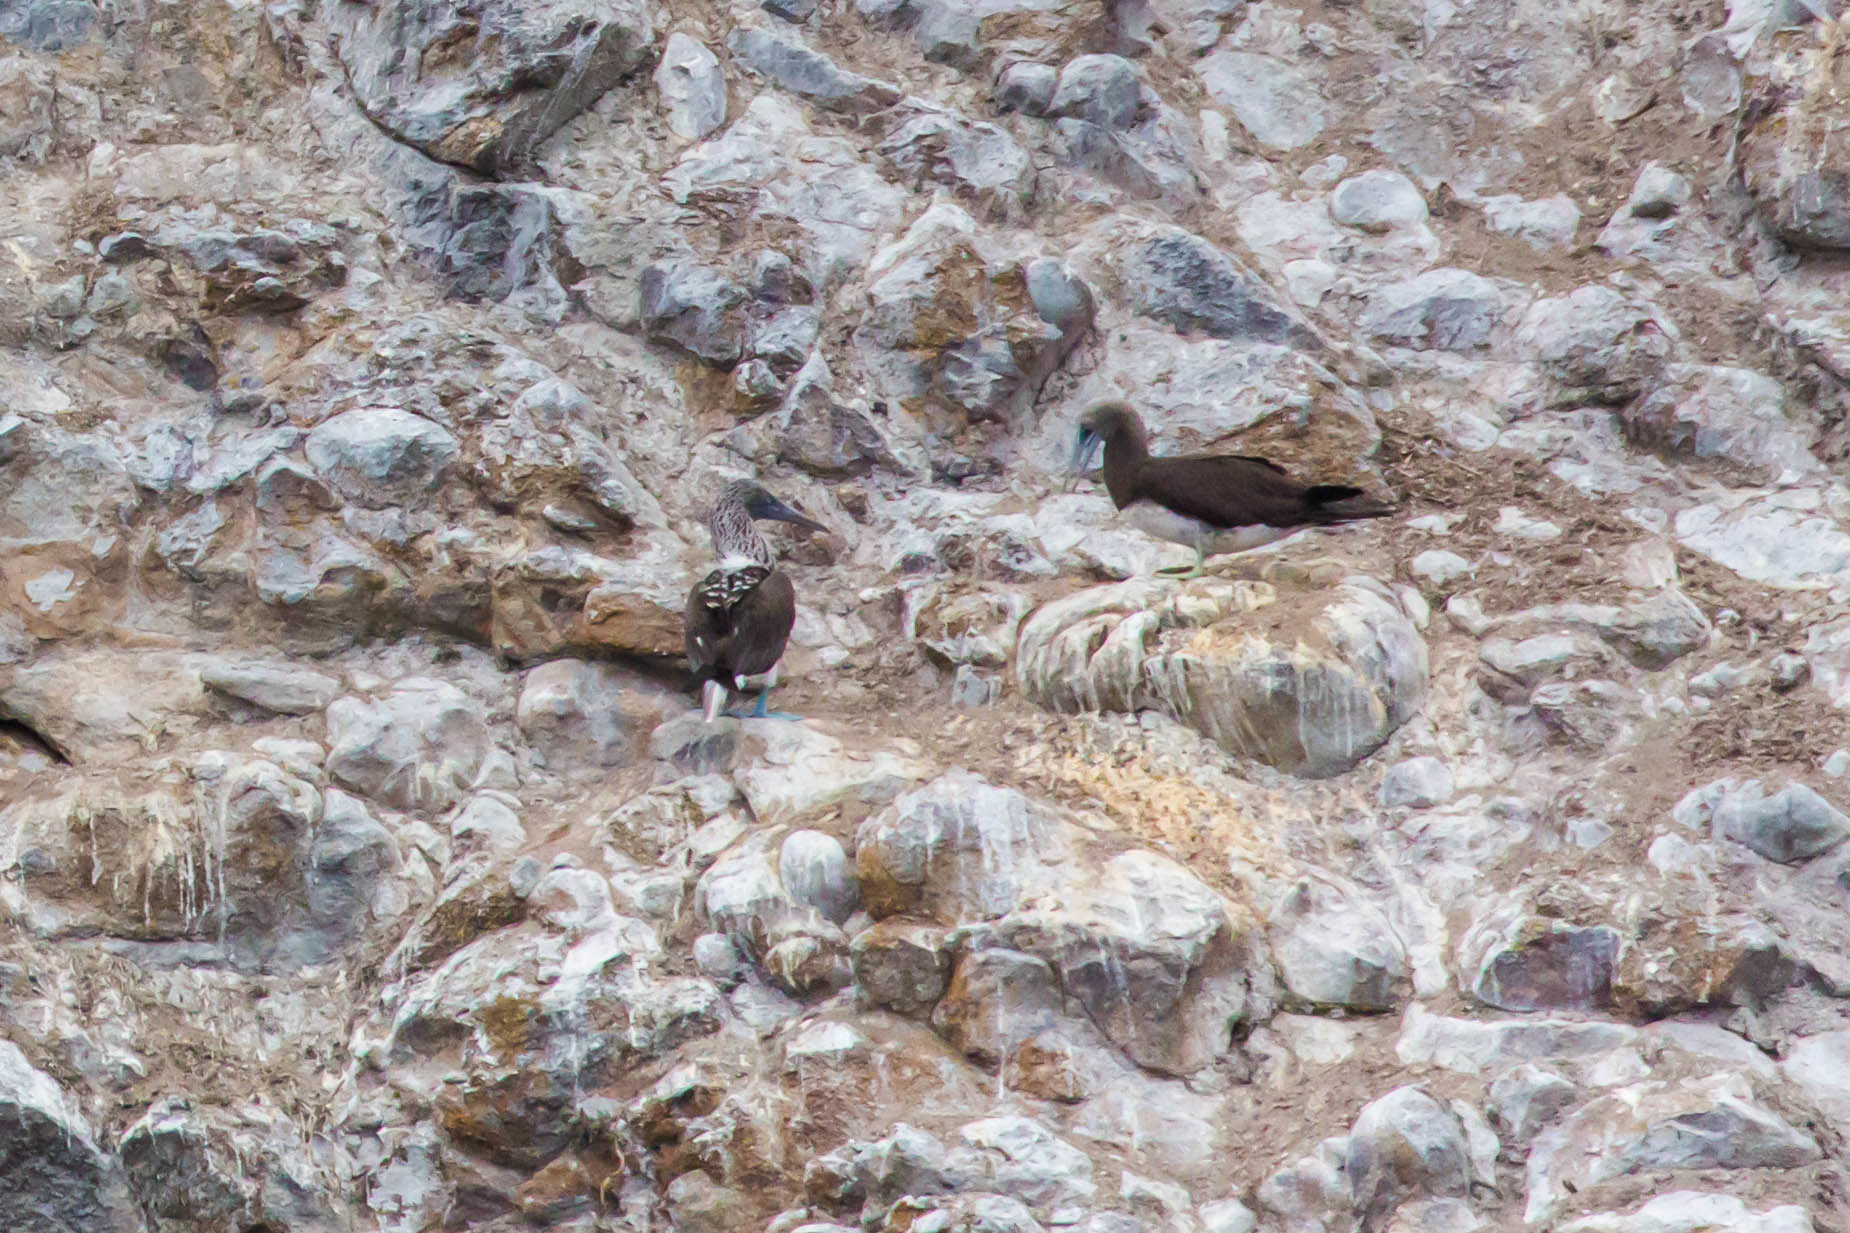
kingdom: Animalia
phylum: Chordata
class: Aves
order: Suliformes
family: Sulidae
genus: Sula
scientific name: Sula leucogaster
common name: Brown booby
